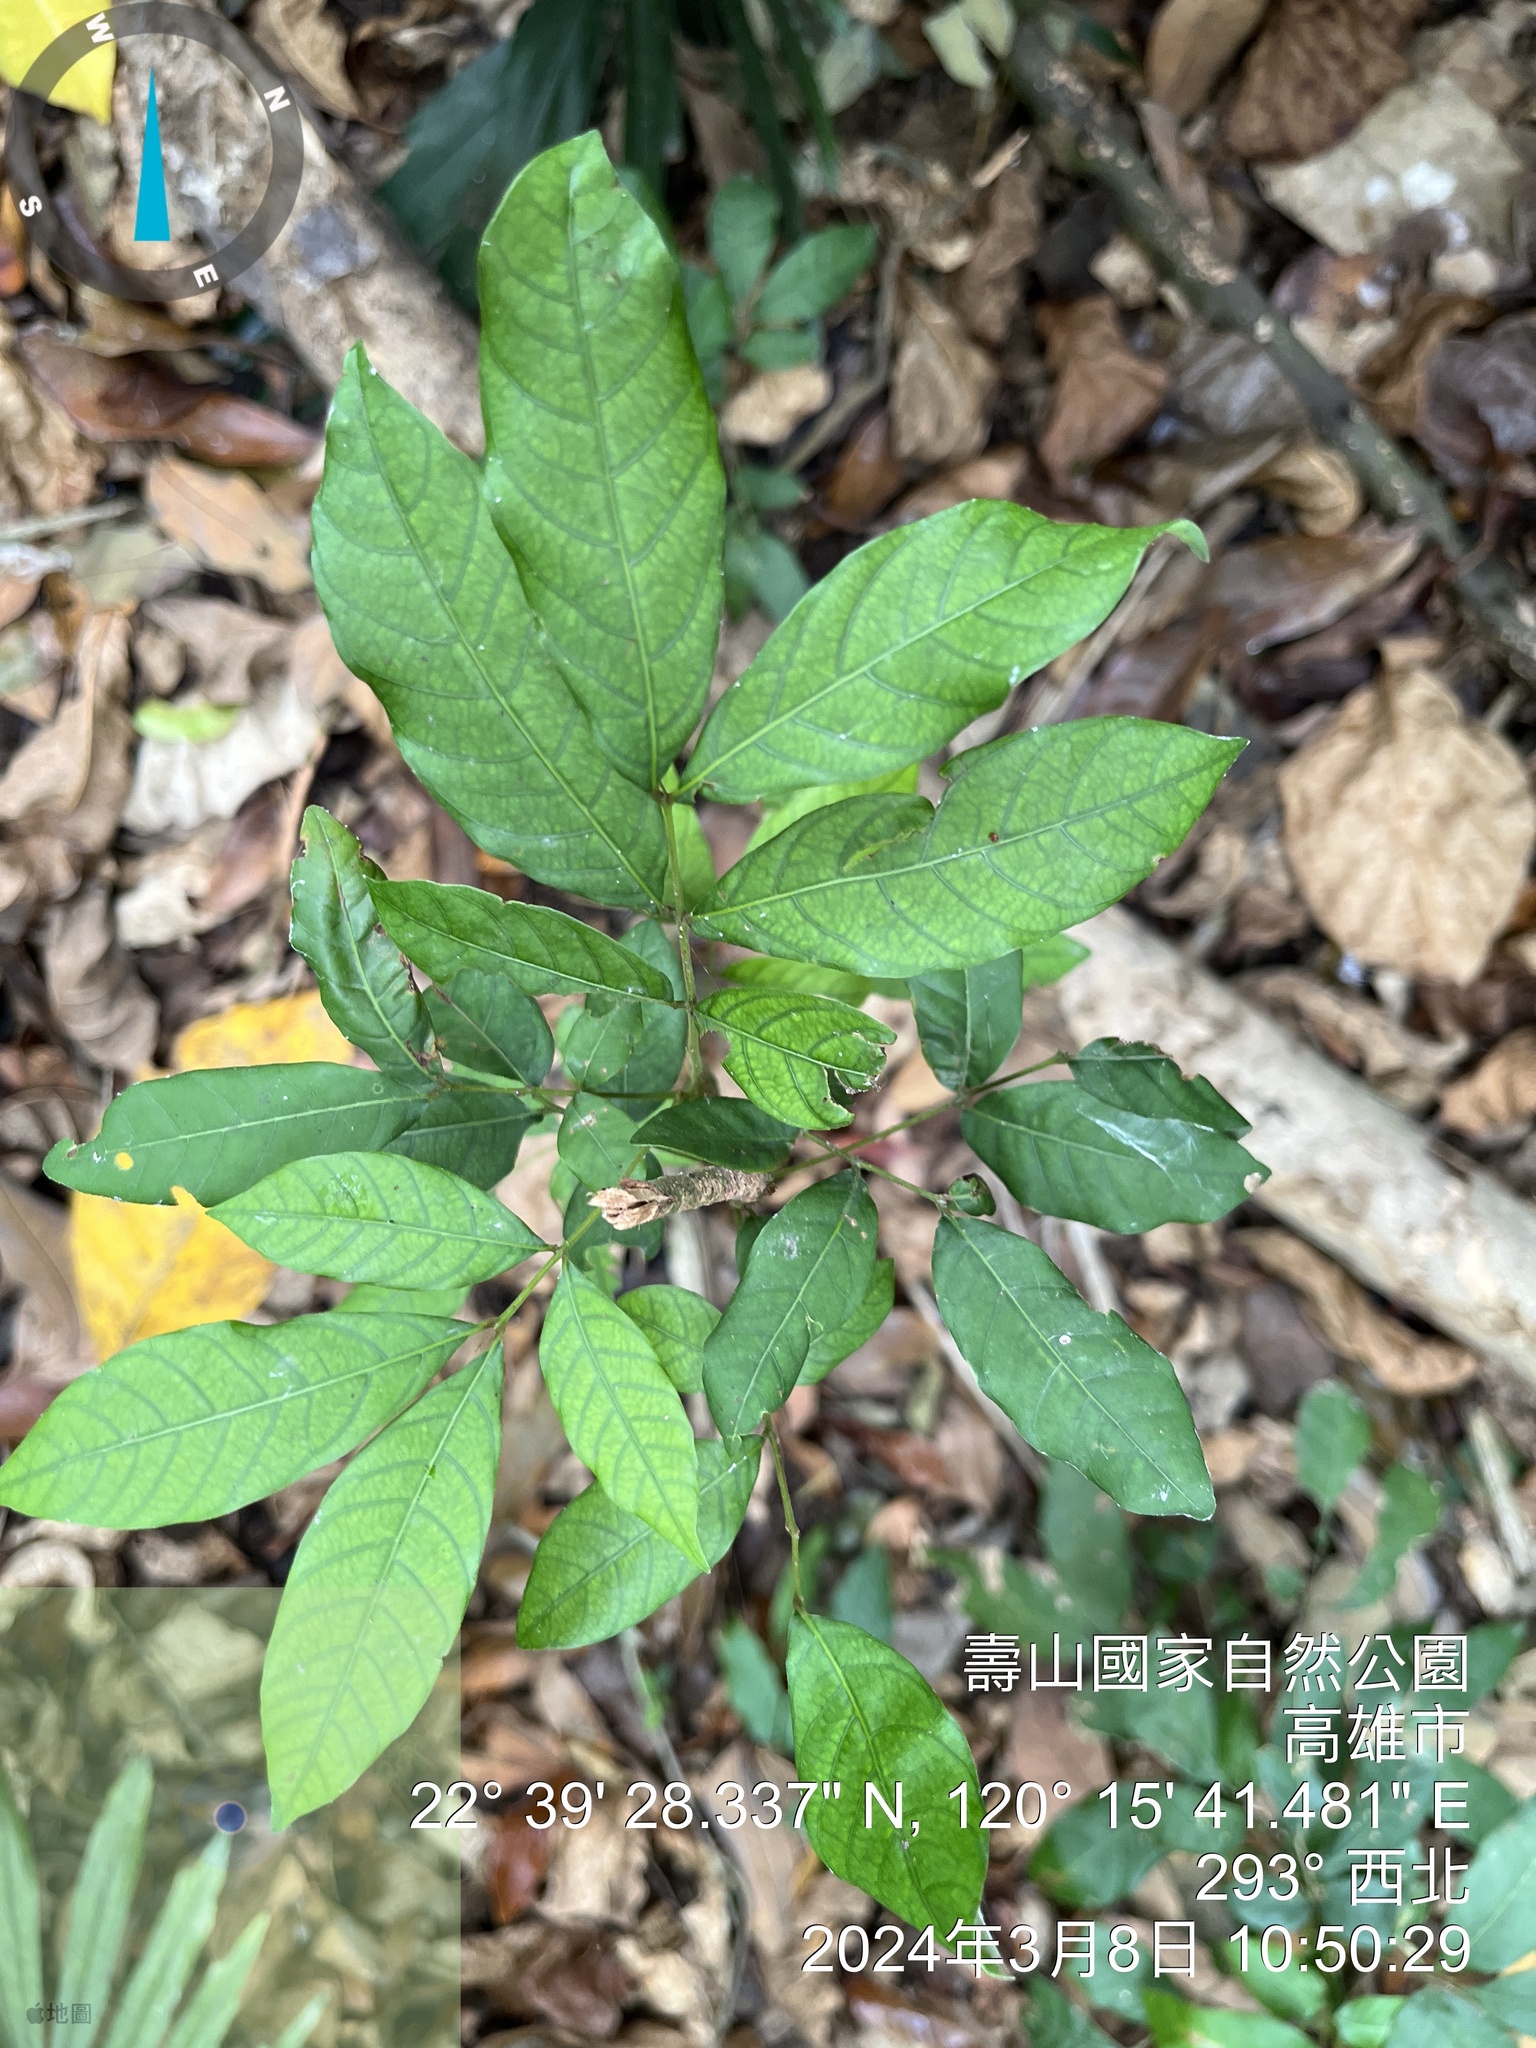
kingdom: Plantae
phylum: Tracheophyta
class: Magnoliopsida
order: Sapindales
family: Sapindaceae
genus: Dimocarpus
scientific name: Dimocarpus longan
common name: Longan
